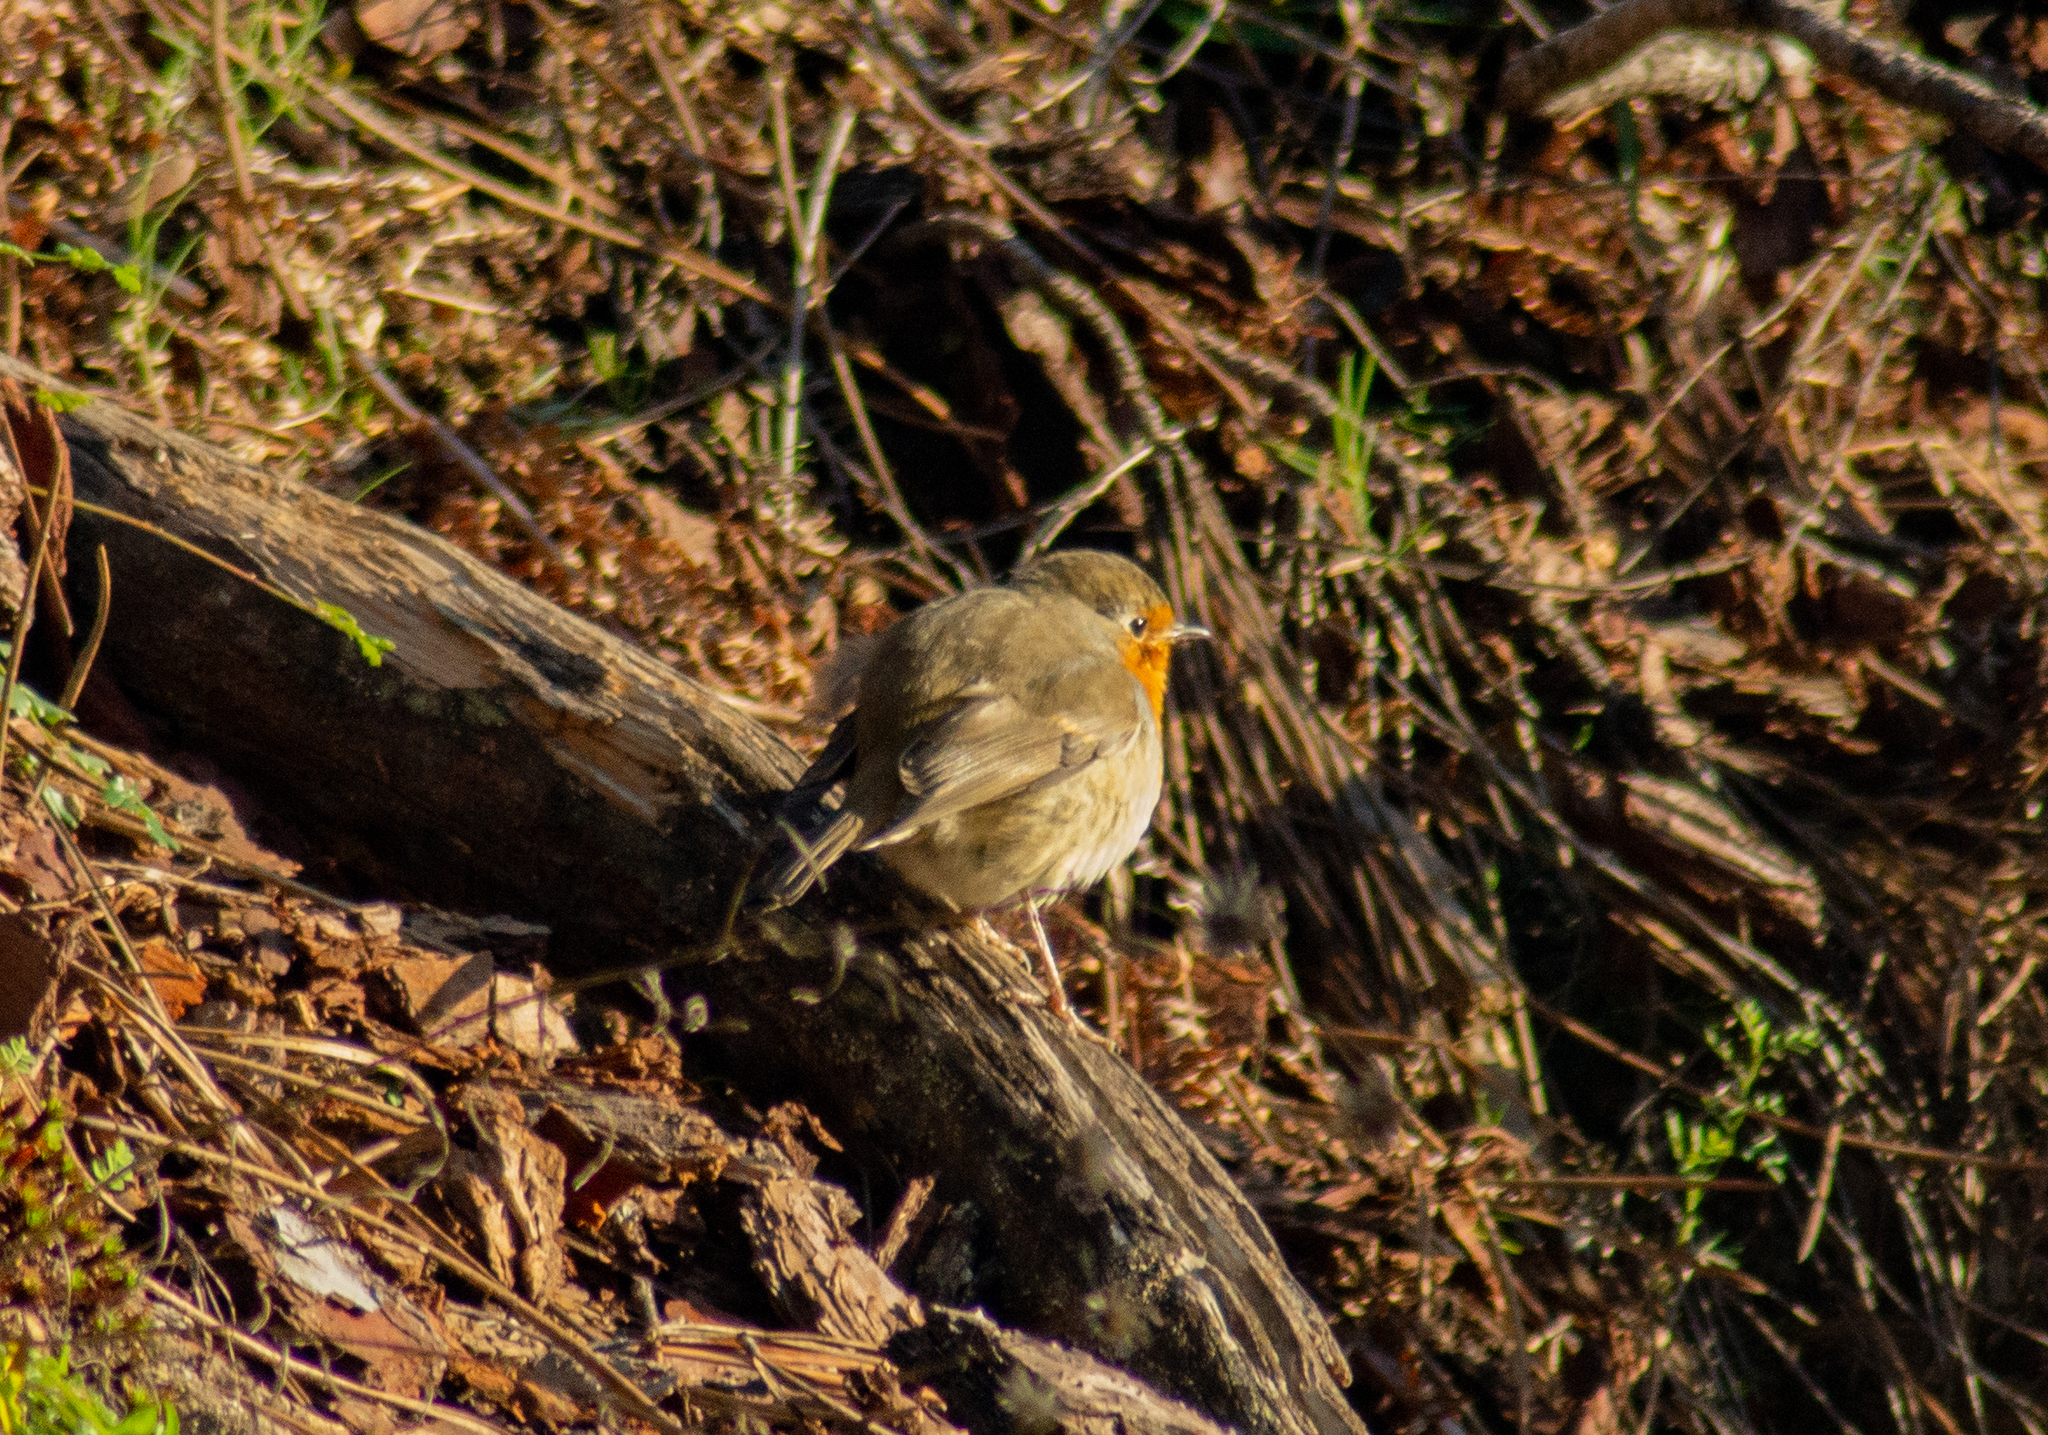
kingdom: Animalia
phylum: Chordata
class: Aves
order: Passeriformes
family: Muscicapidae
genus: Erithacus
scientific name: Erithacus rubecula
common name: European robin
